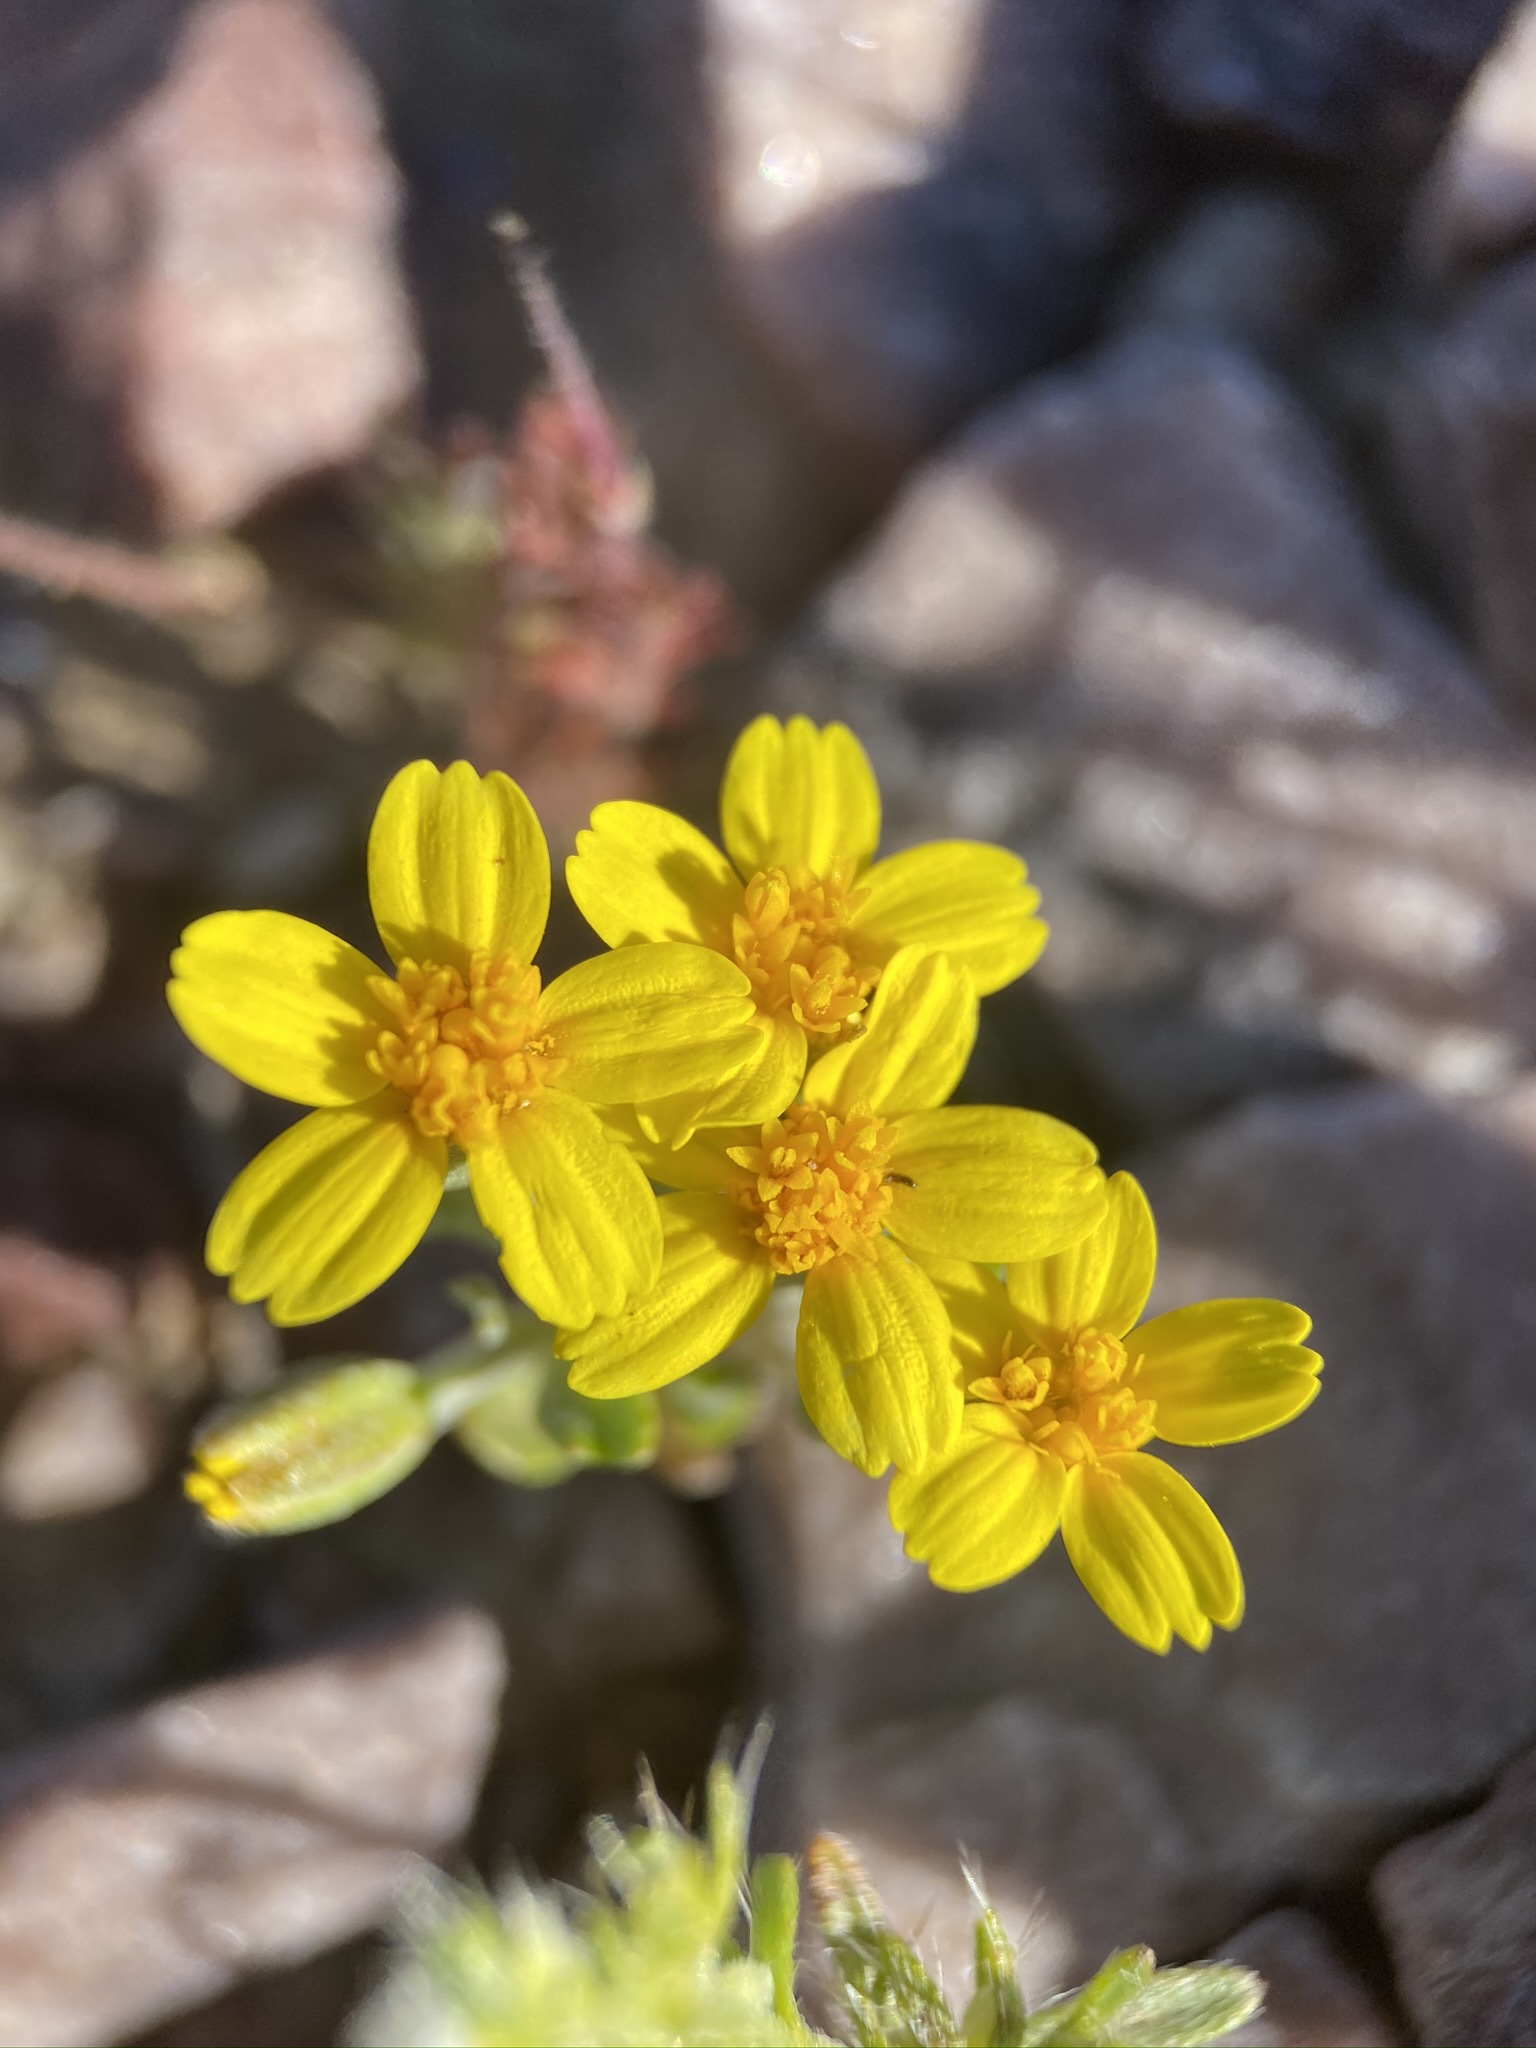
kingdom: Plantae
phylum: Tracheophyta
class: Magnoliopsida
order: Asterales
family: Asteraceae
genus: Syntrichopappus
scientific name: Syntrichopappus fremontii
